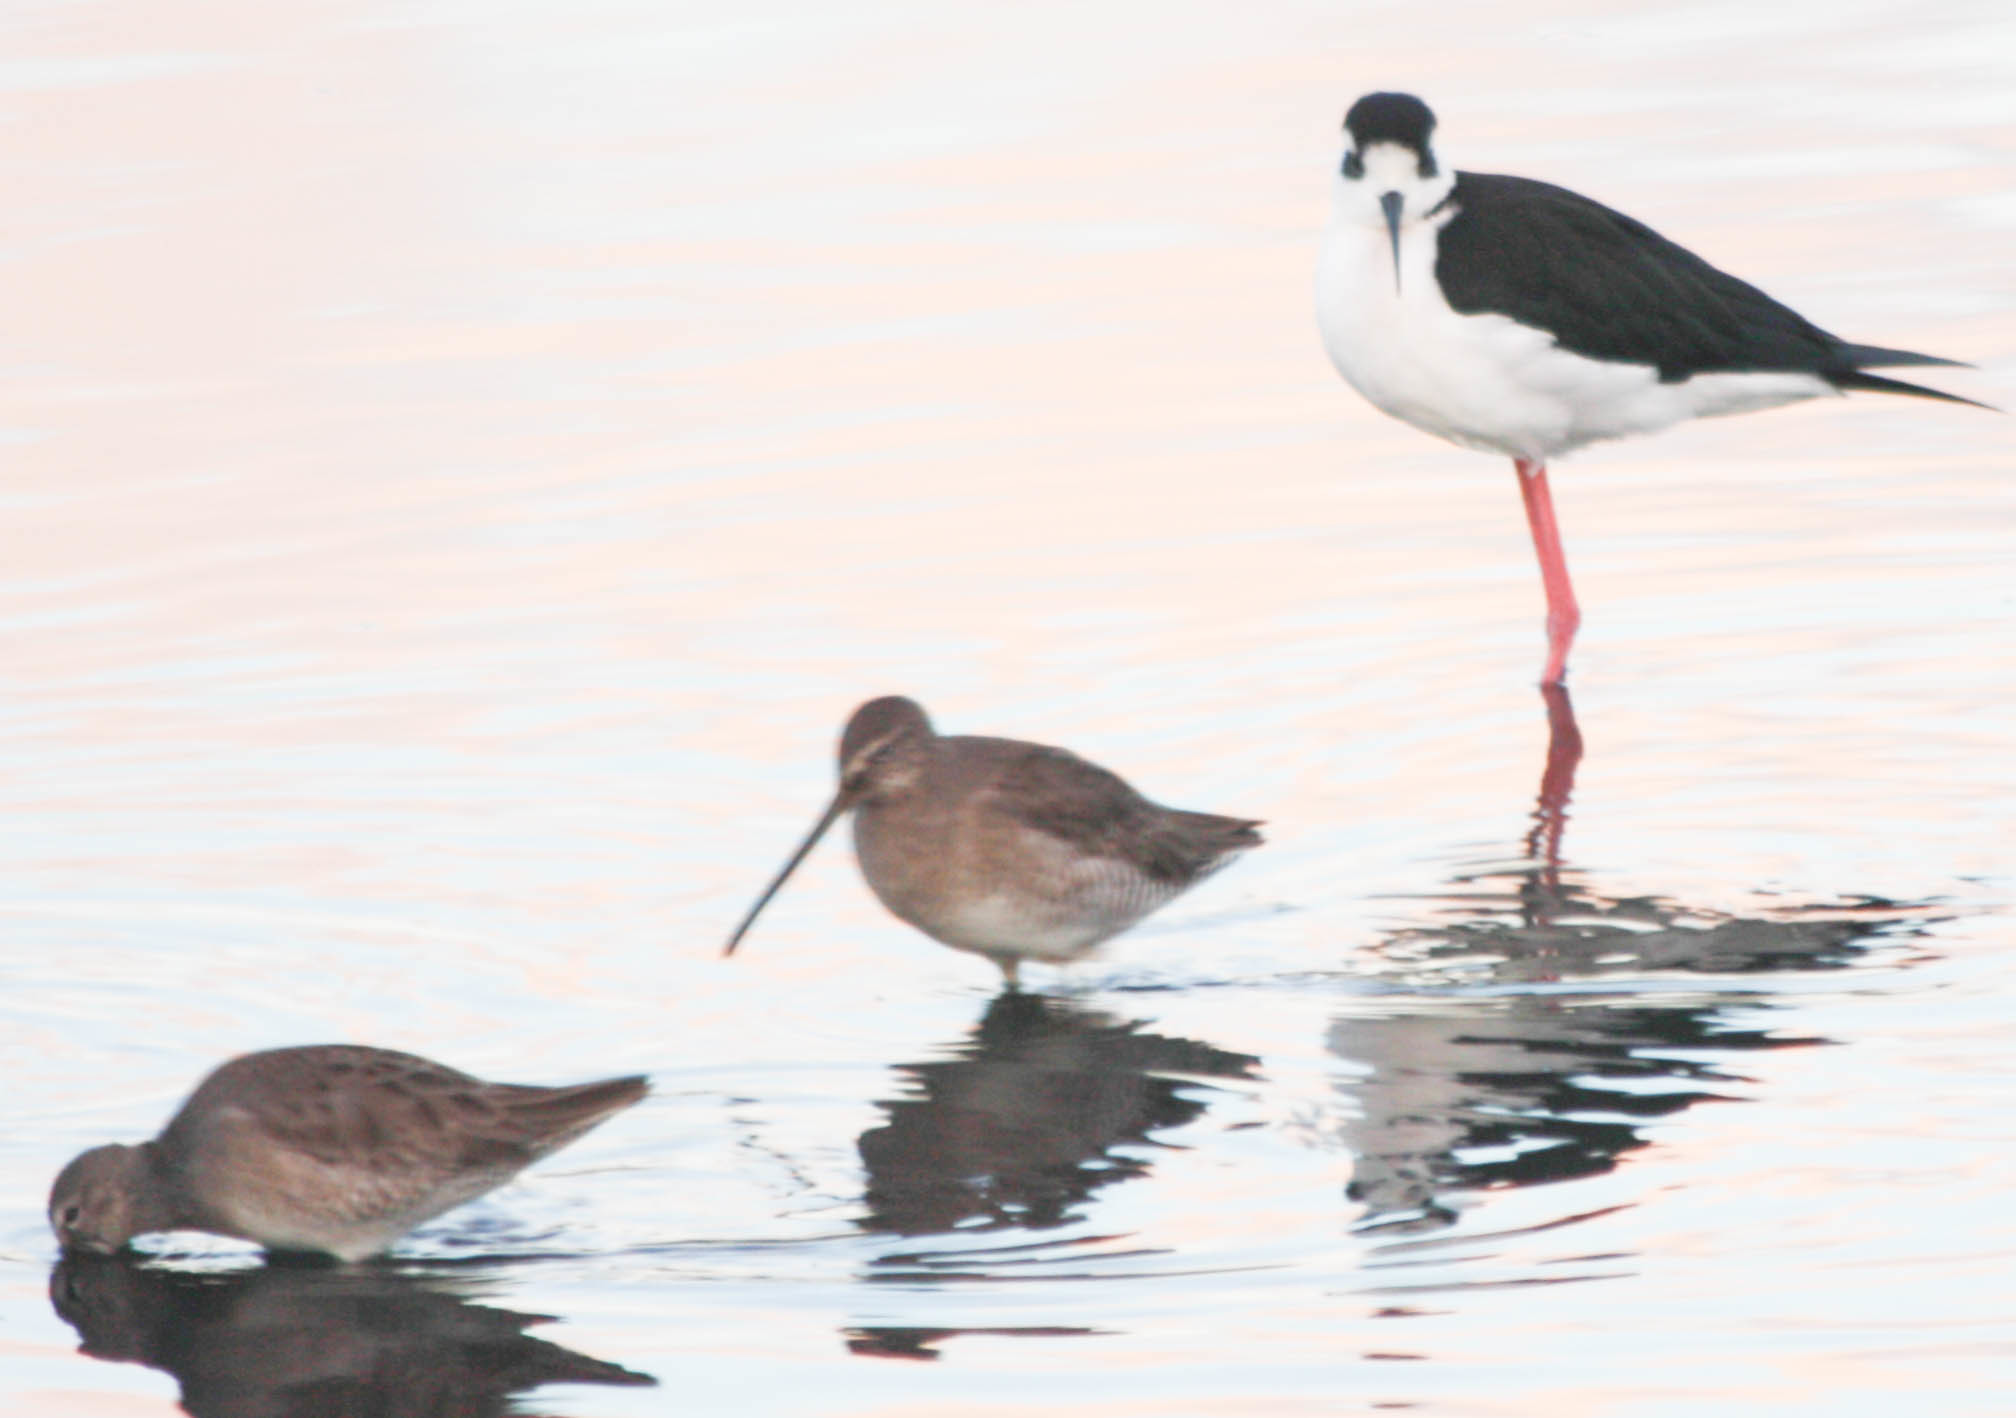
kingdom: Animalia
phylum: Chordata
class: Aves
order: Charadriiformes
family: Scolopacidae
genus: Limnodromus
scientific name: Limnodromus scolopaceus
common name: Long-billed dowitcher
